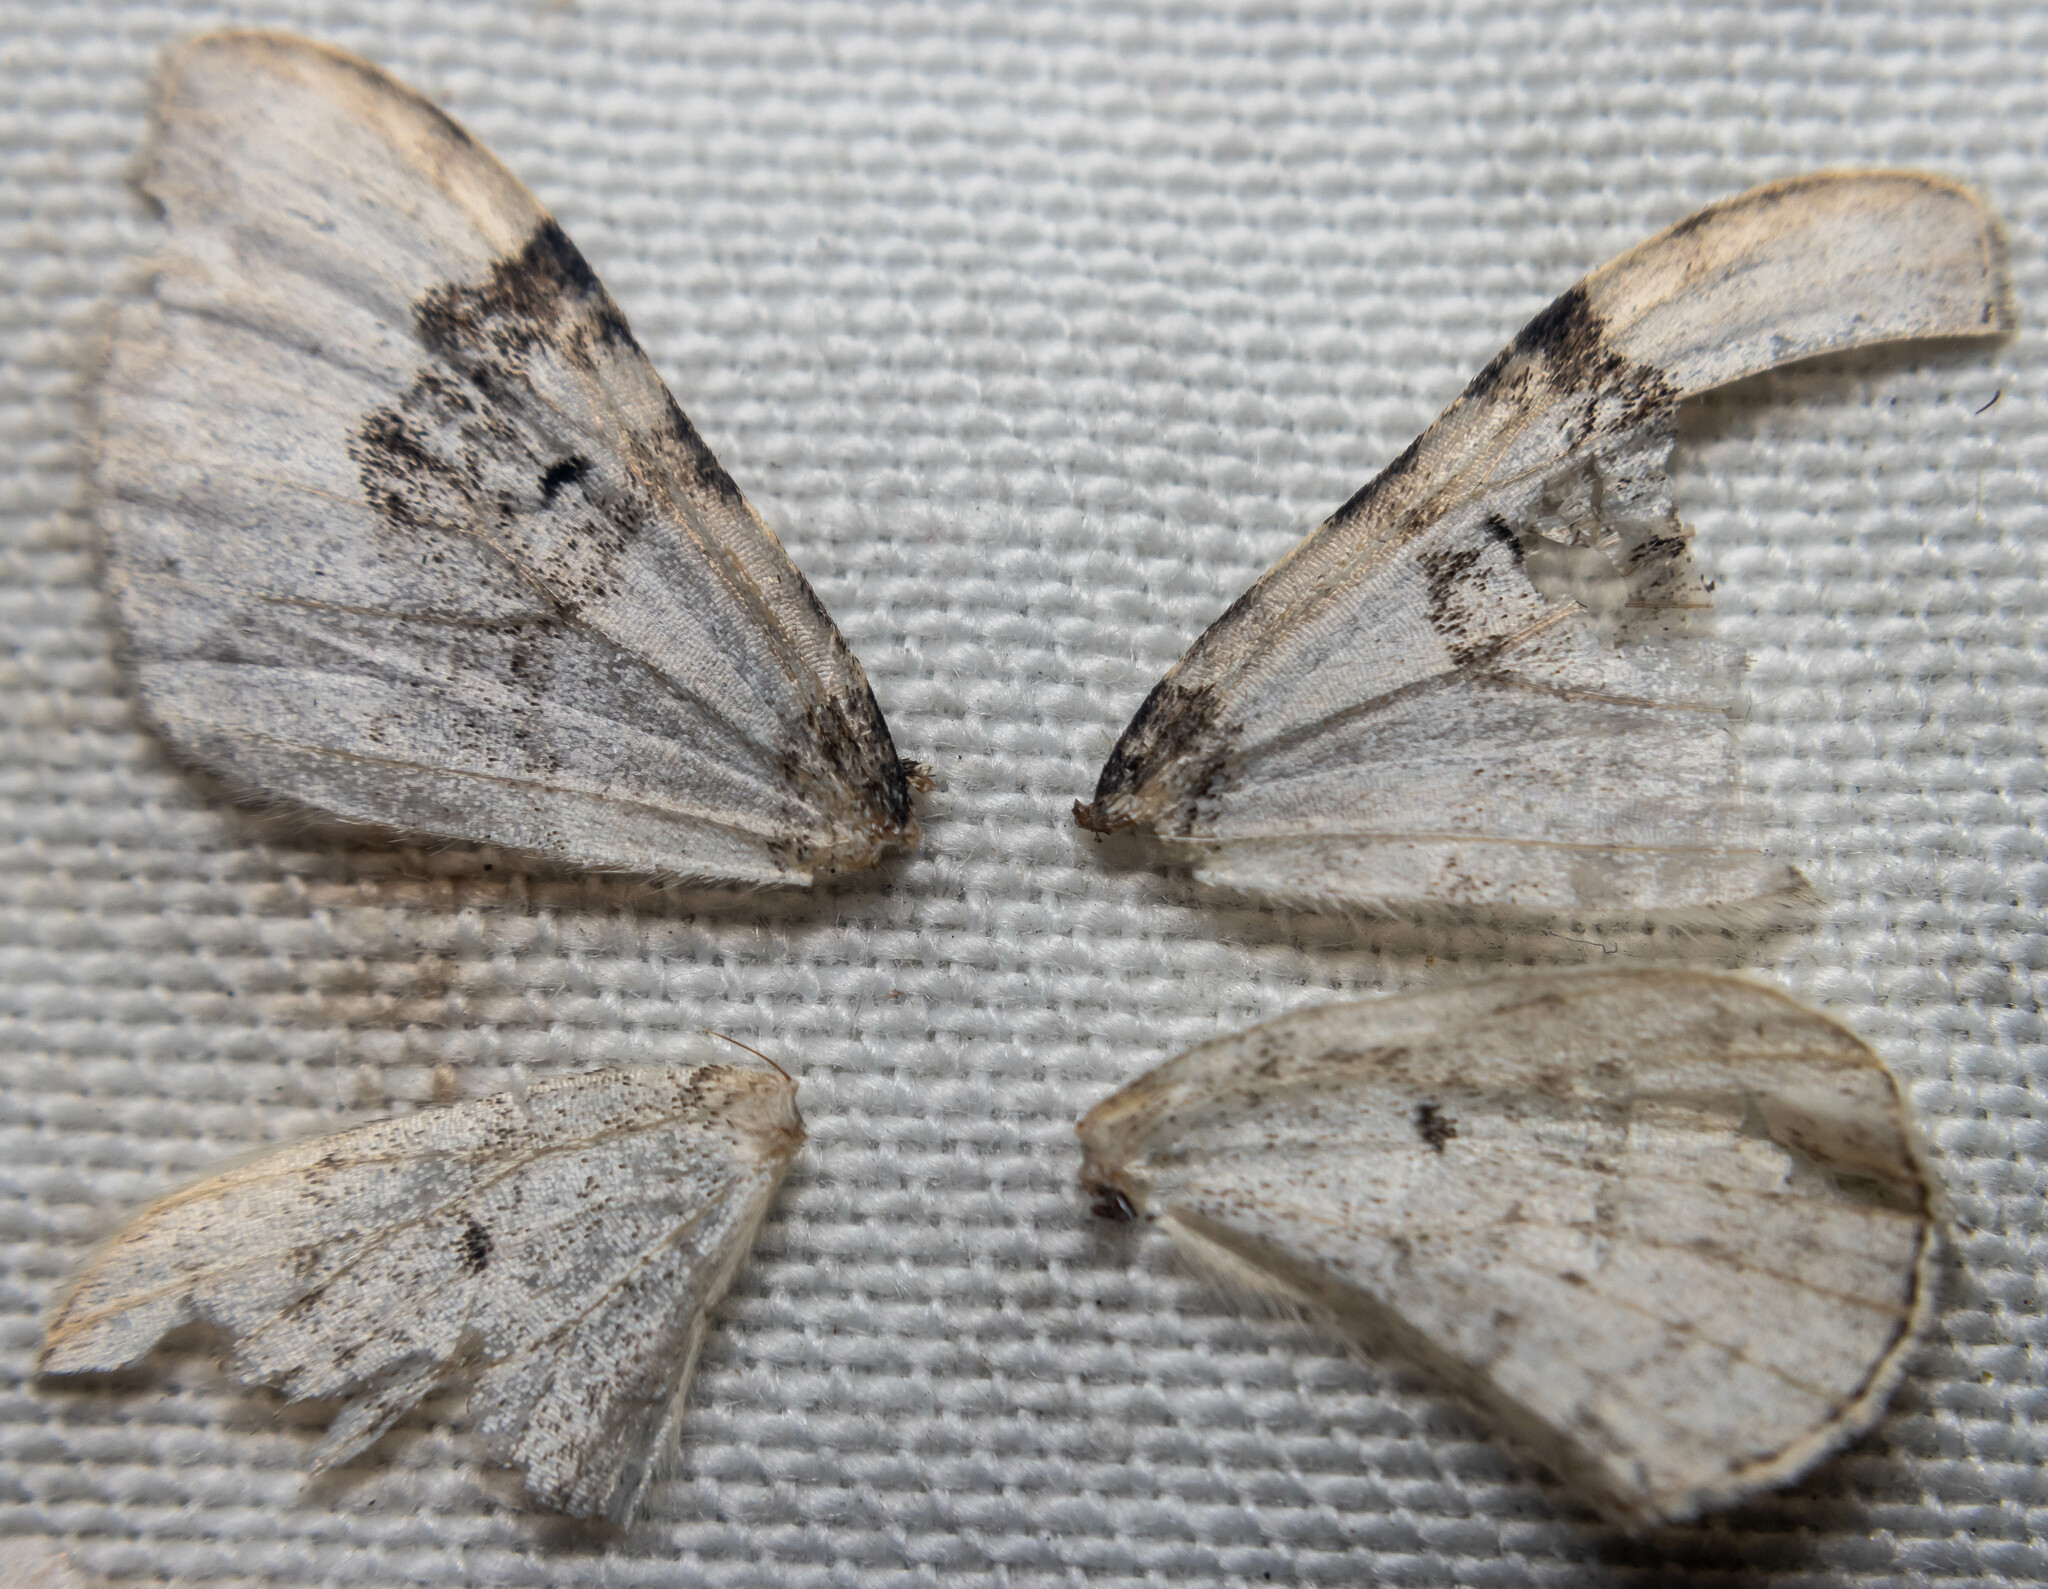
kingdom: Animalia
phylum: Arthropoda
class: Insecta
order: Lepidoptera
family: Geometridae
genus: Xanthorhoe
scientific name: Xanthorhoe montanata
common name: Silver-ground carpet
